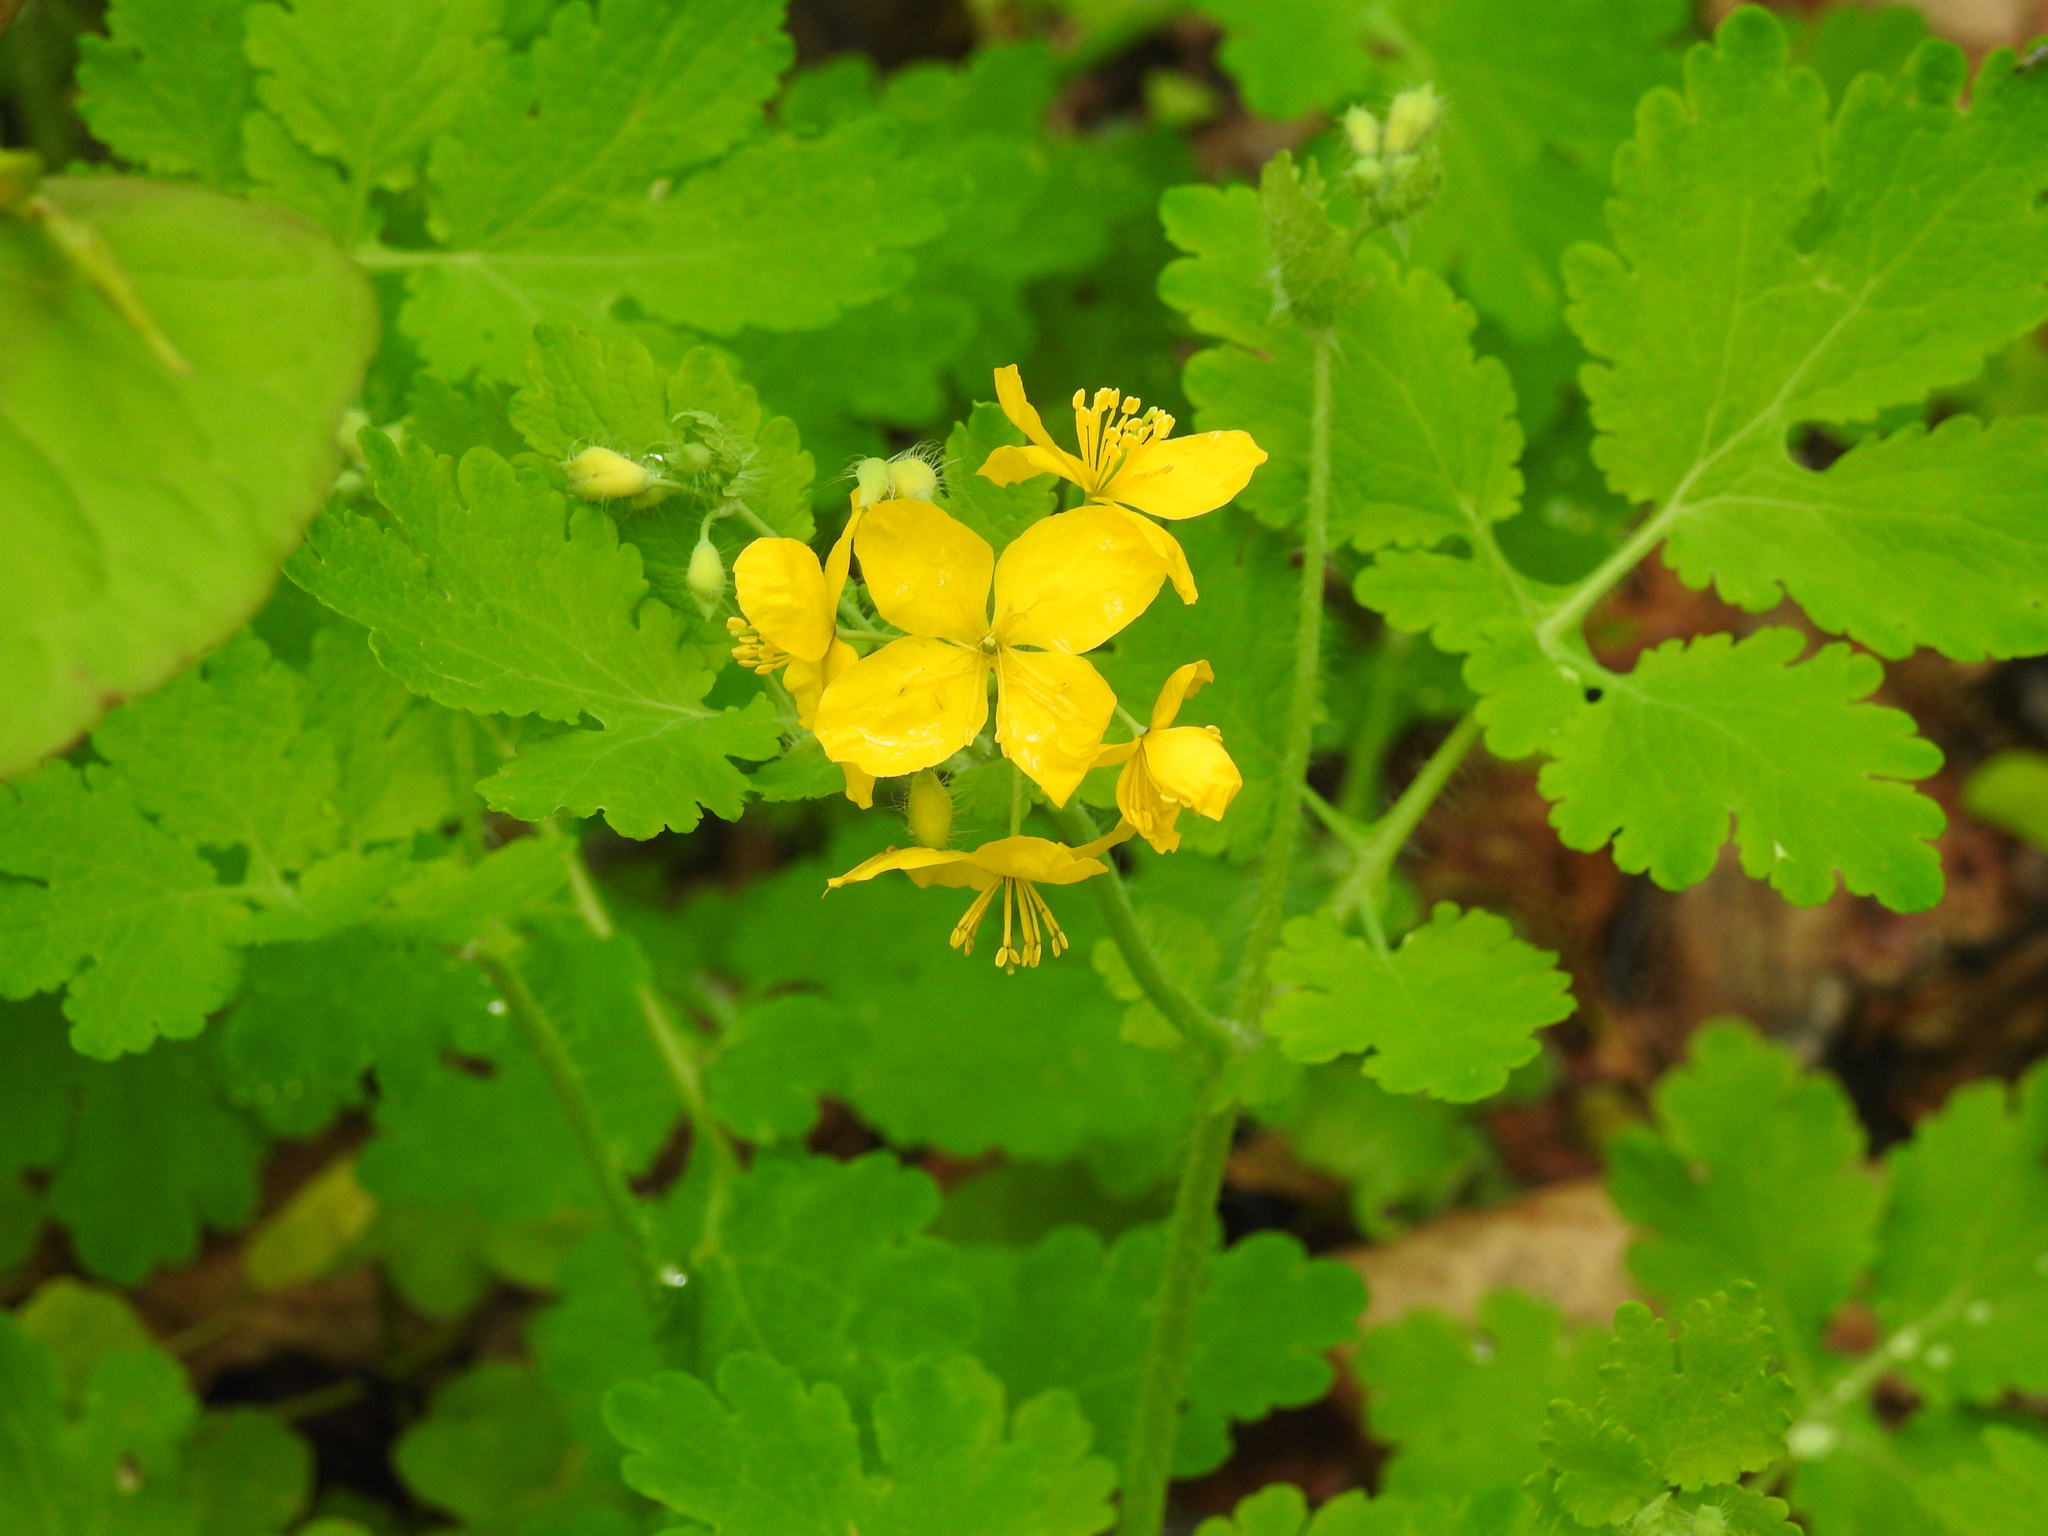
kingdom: Plantae
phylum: Tracheophyta
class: Magnoliopsida
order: Ranunculales
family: Papaveraceae
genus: Chelidonium
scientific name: Chelidonium majus
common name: Greater celandine
